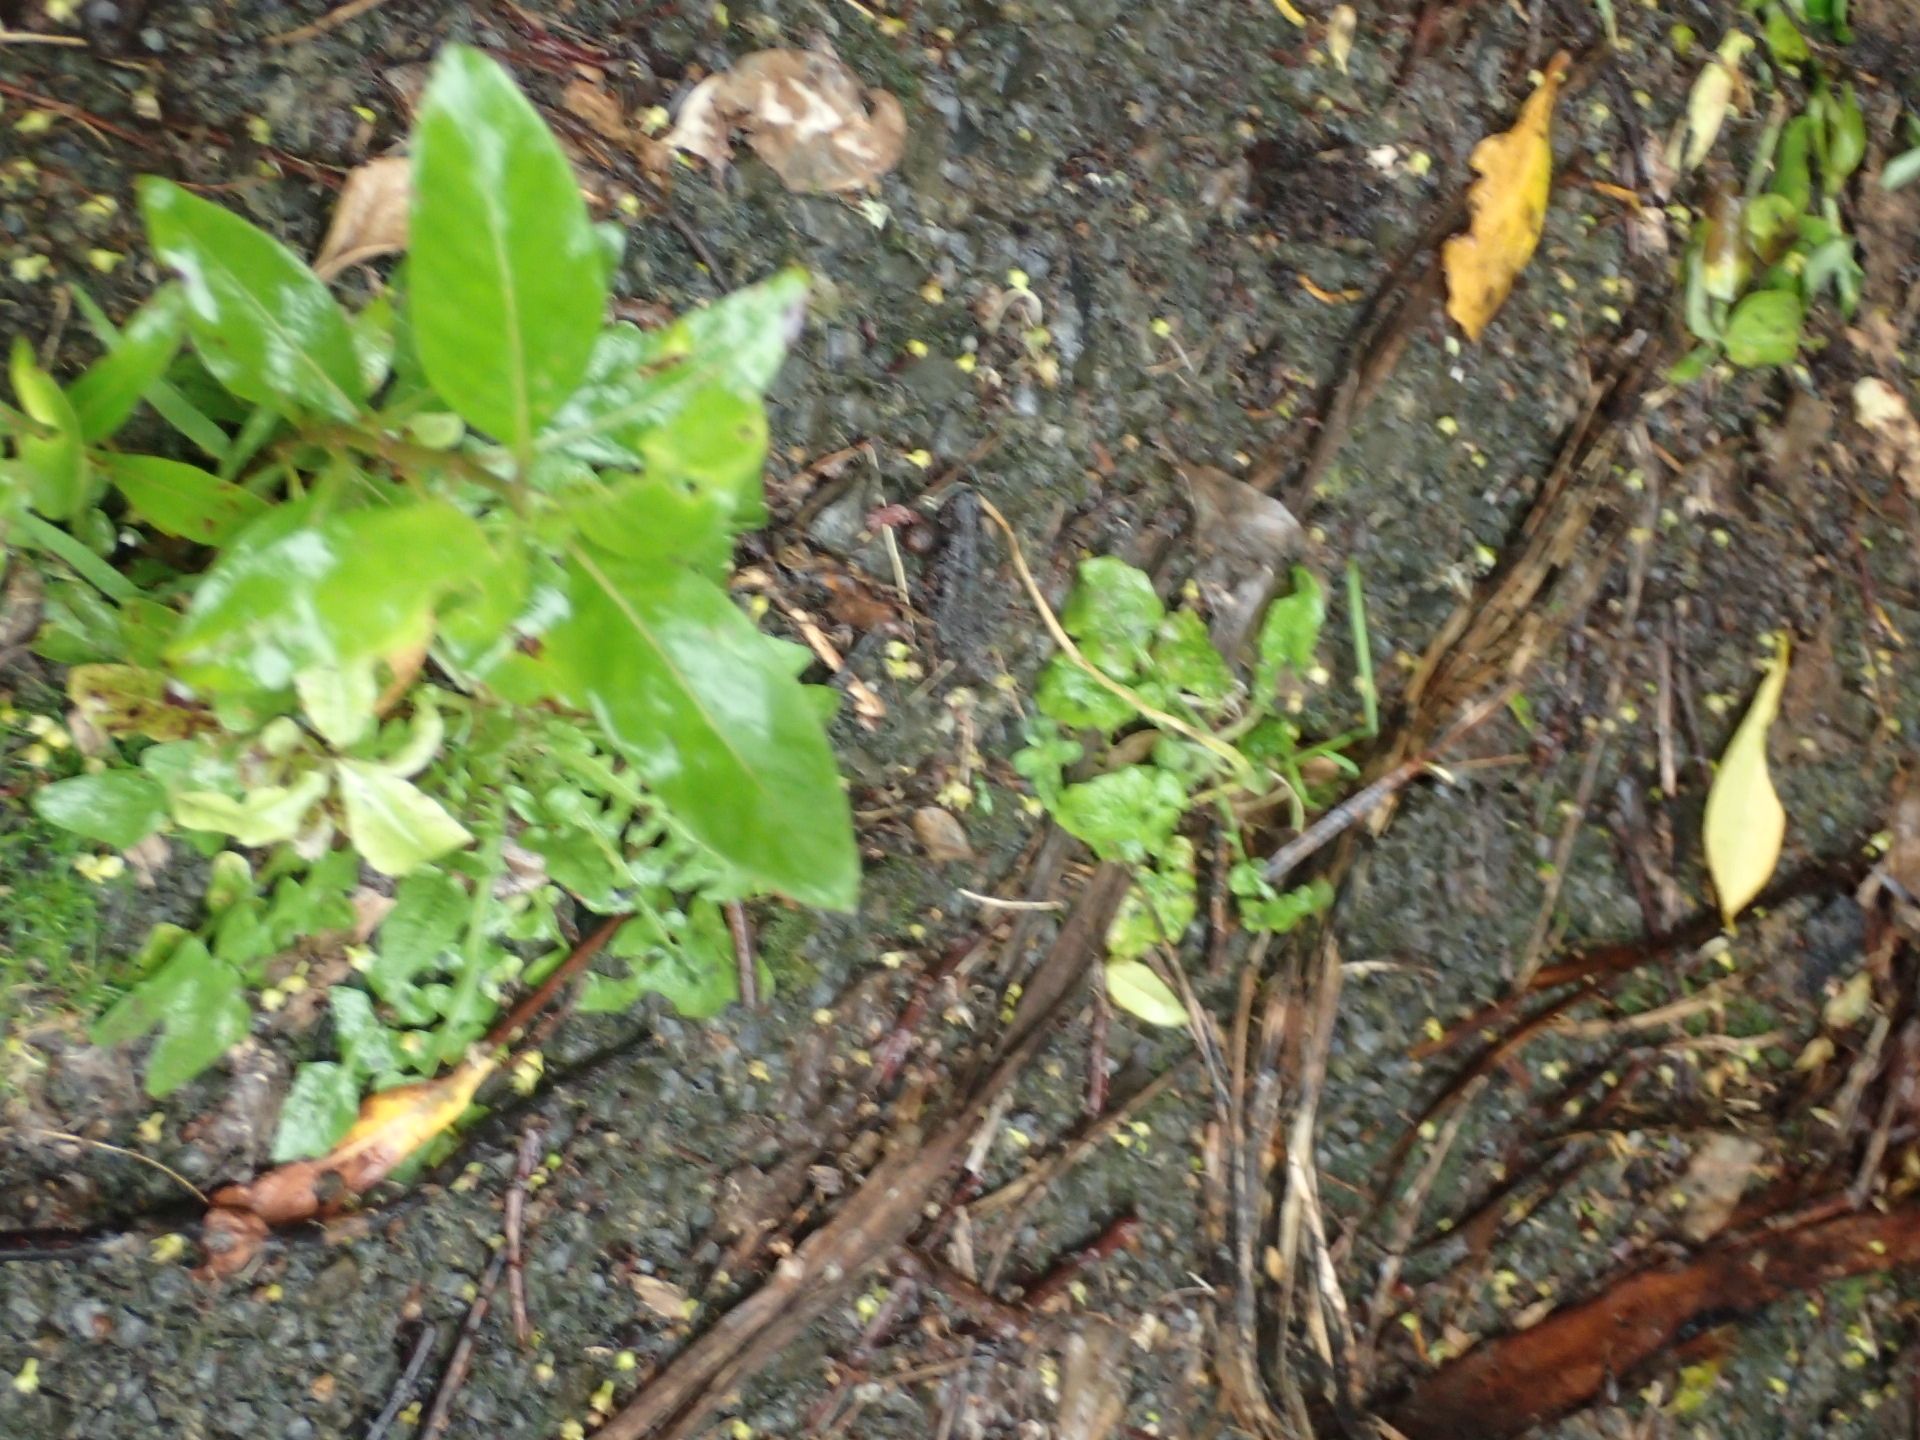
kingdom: Plantae
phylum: Tracheophyta
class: Magnoliopsida
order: Gentianales
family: Rubiaceae
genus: Coprosma
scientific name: Coprosma robusta
